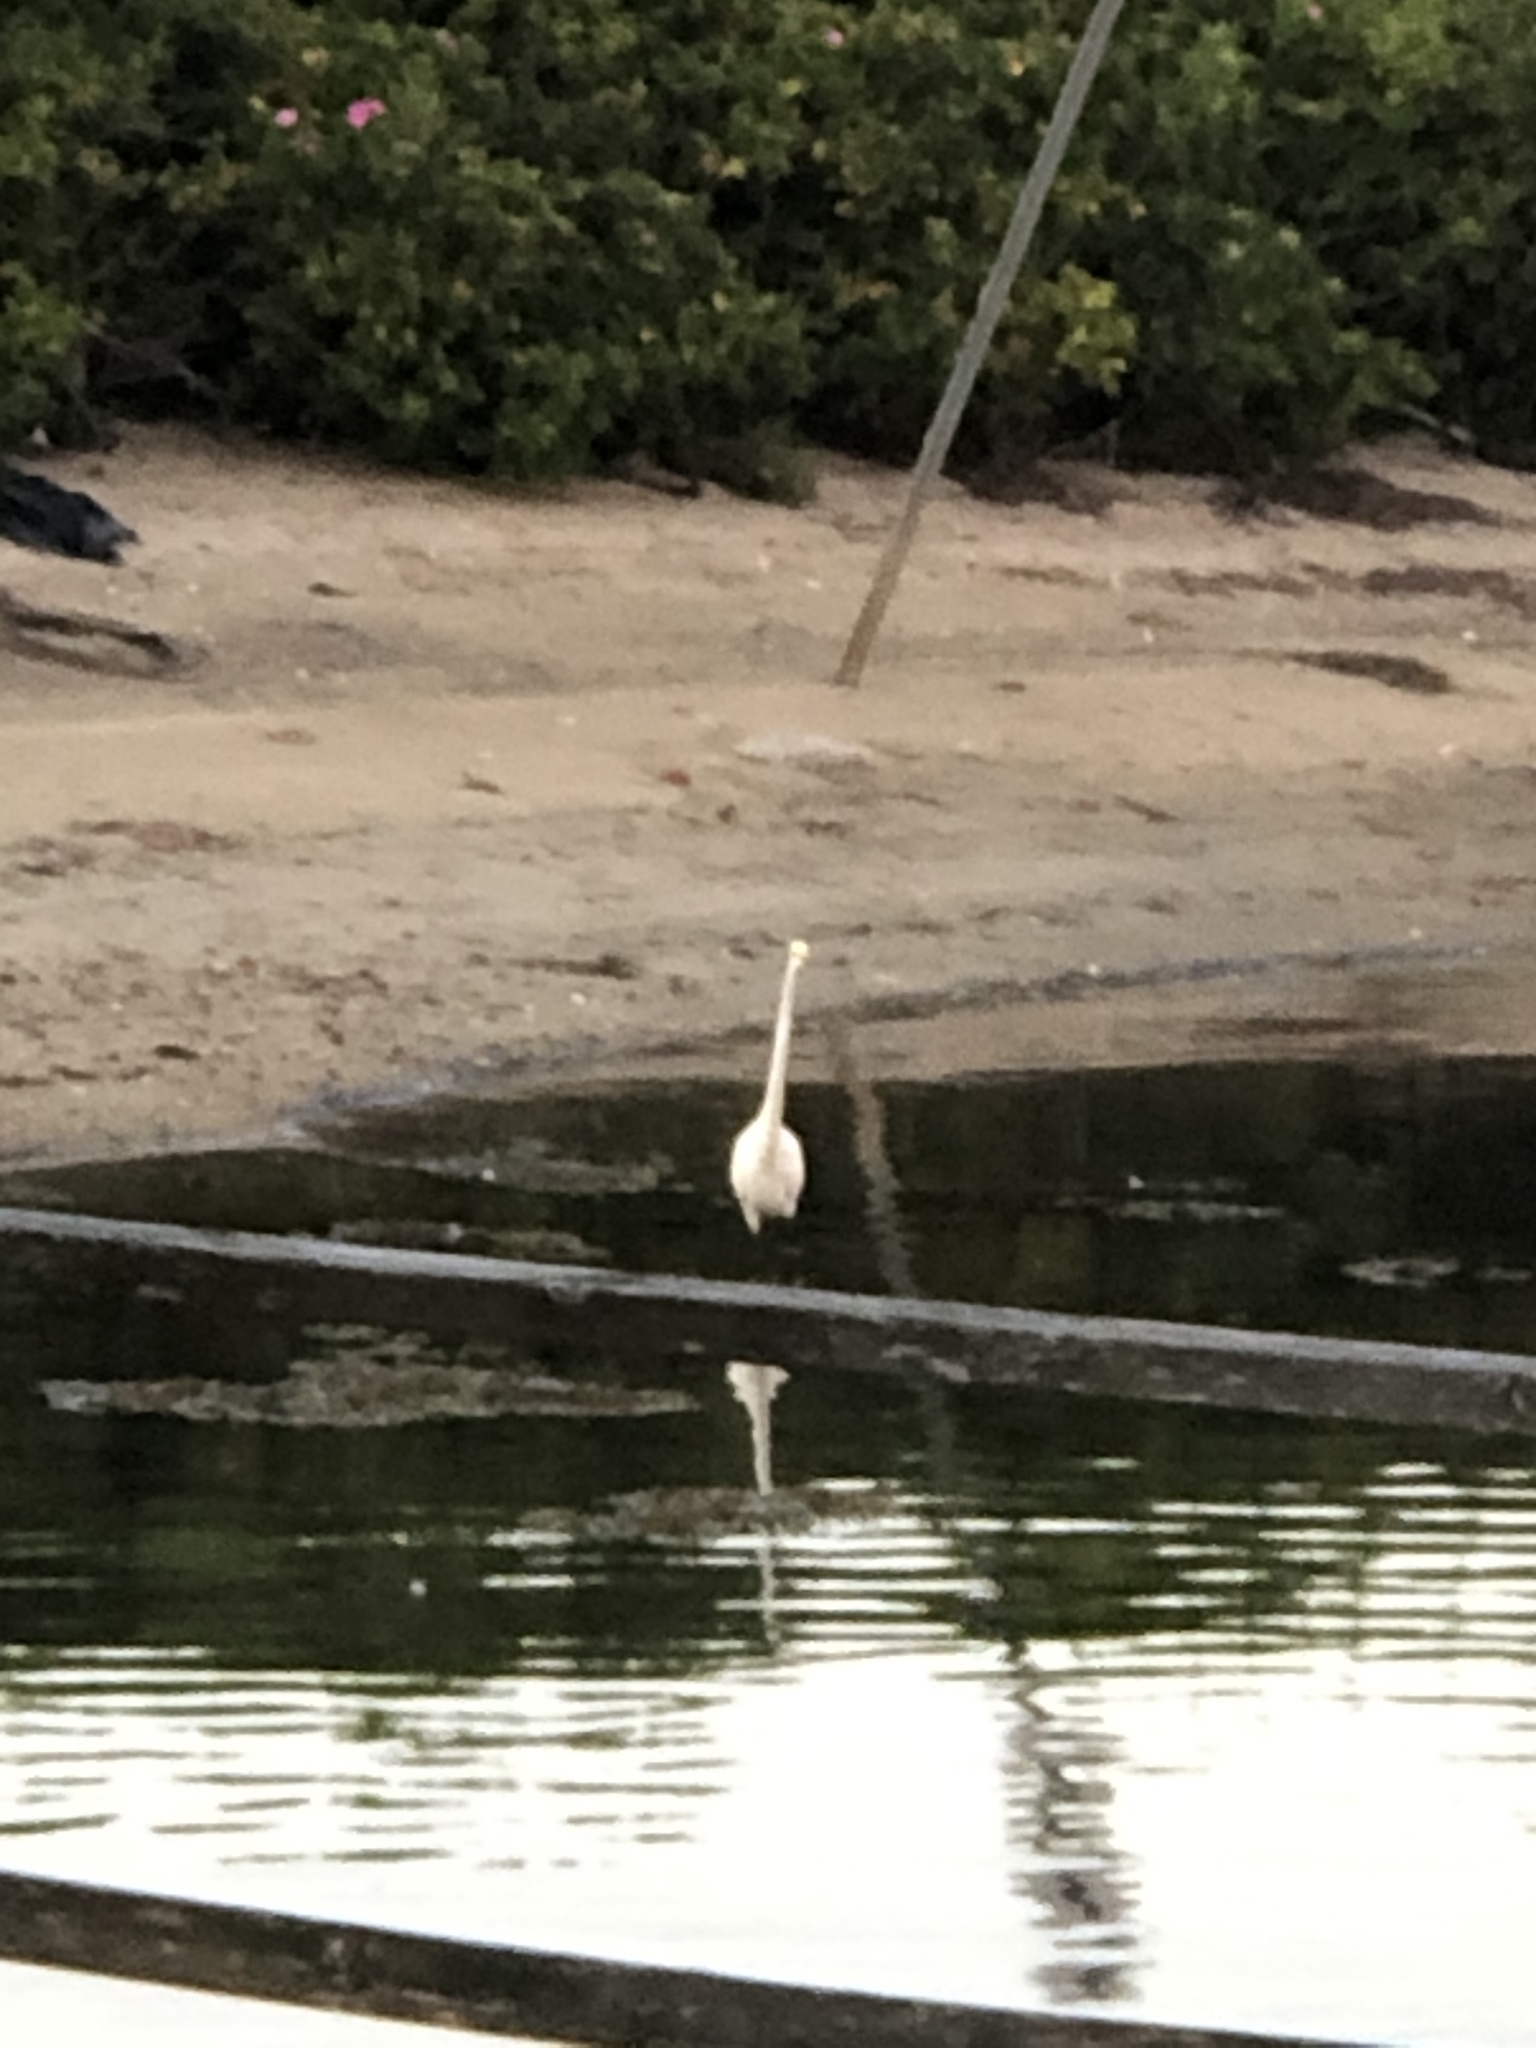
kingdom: Animalia
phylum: Chordata
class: Aves
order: Pelecaniformes
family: Ardeidae
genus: Ardea
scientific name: Ardea alba
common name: Great egret
